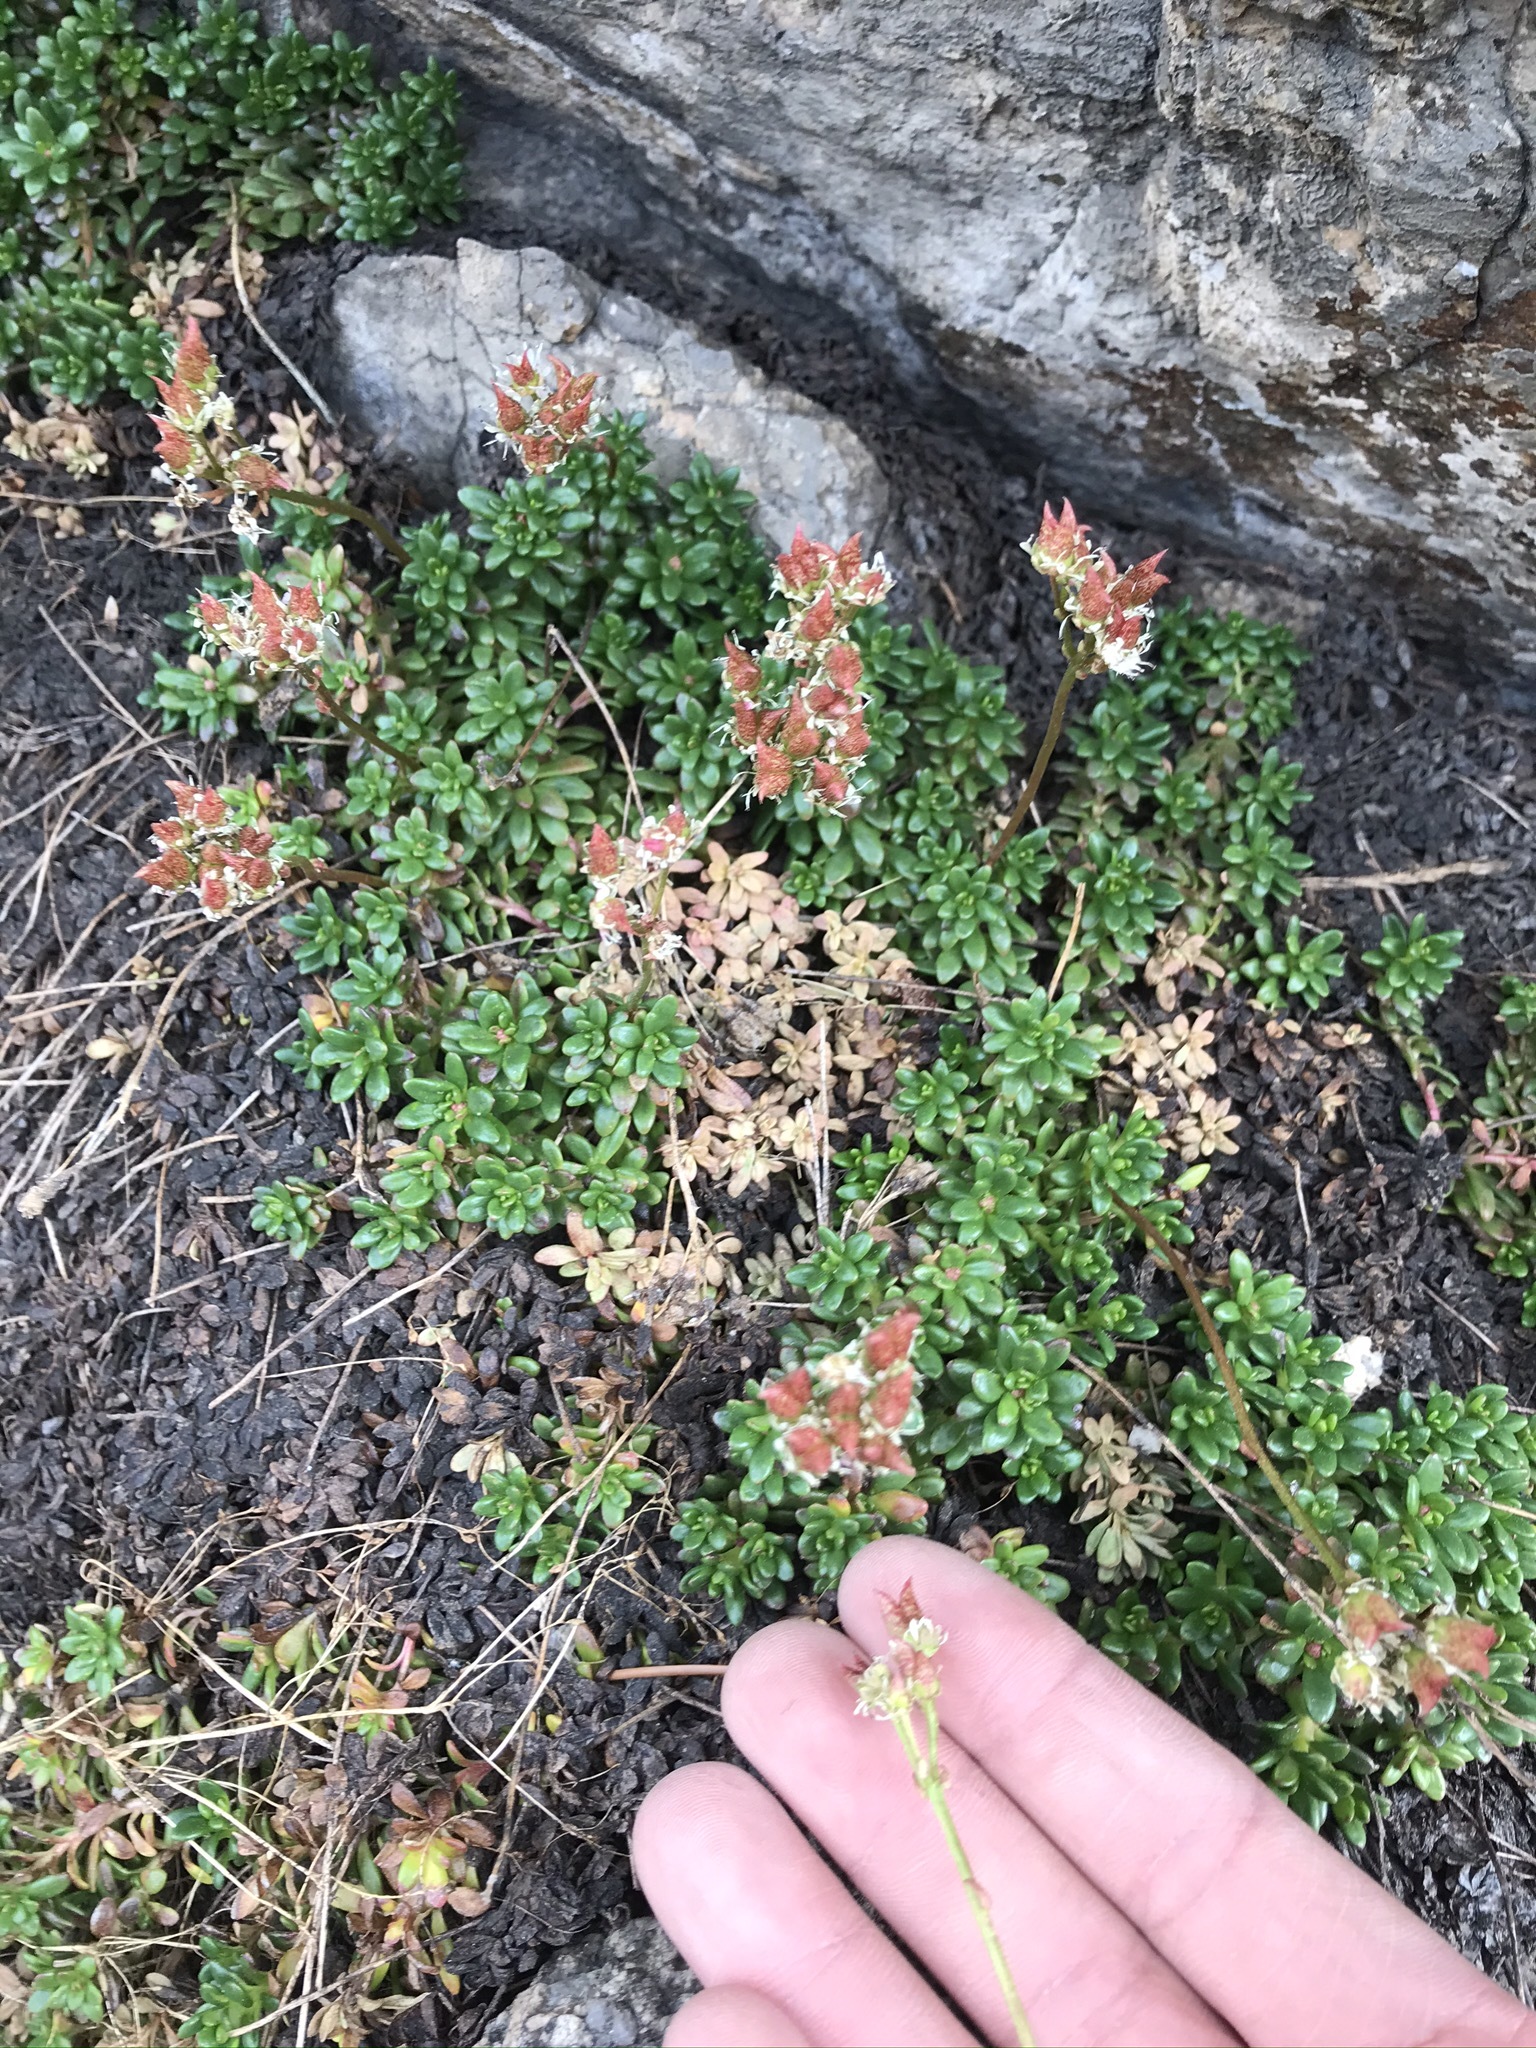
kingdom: Plantae
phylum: Tracheophyta
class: Magnoliopsida
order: Saxifragales
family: Saxifragaceae
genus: Micranthes
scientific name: Micranthes tolmiei
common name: Tolmie's saxifrage
